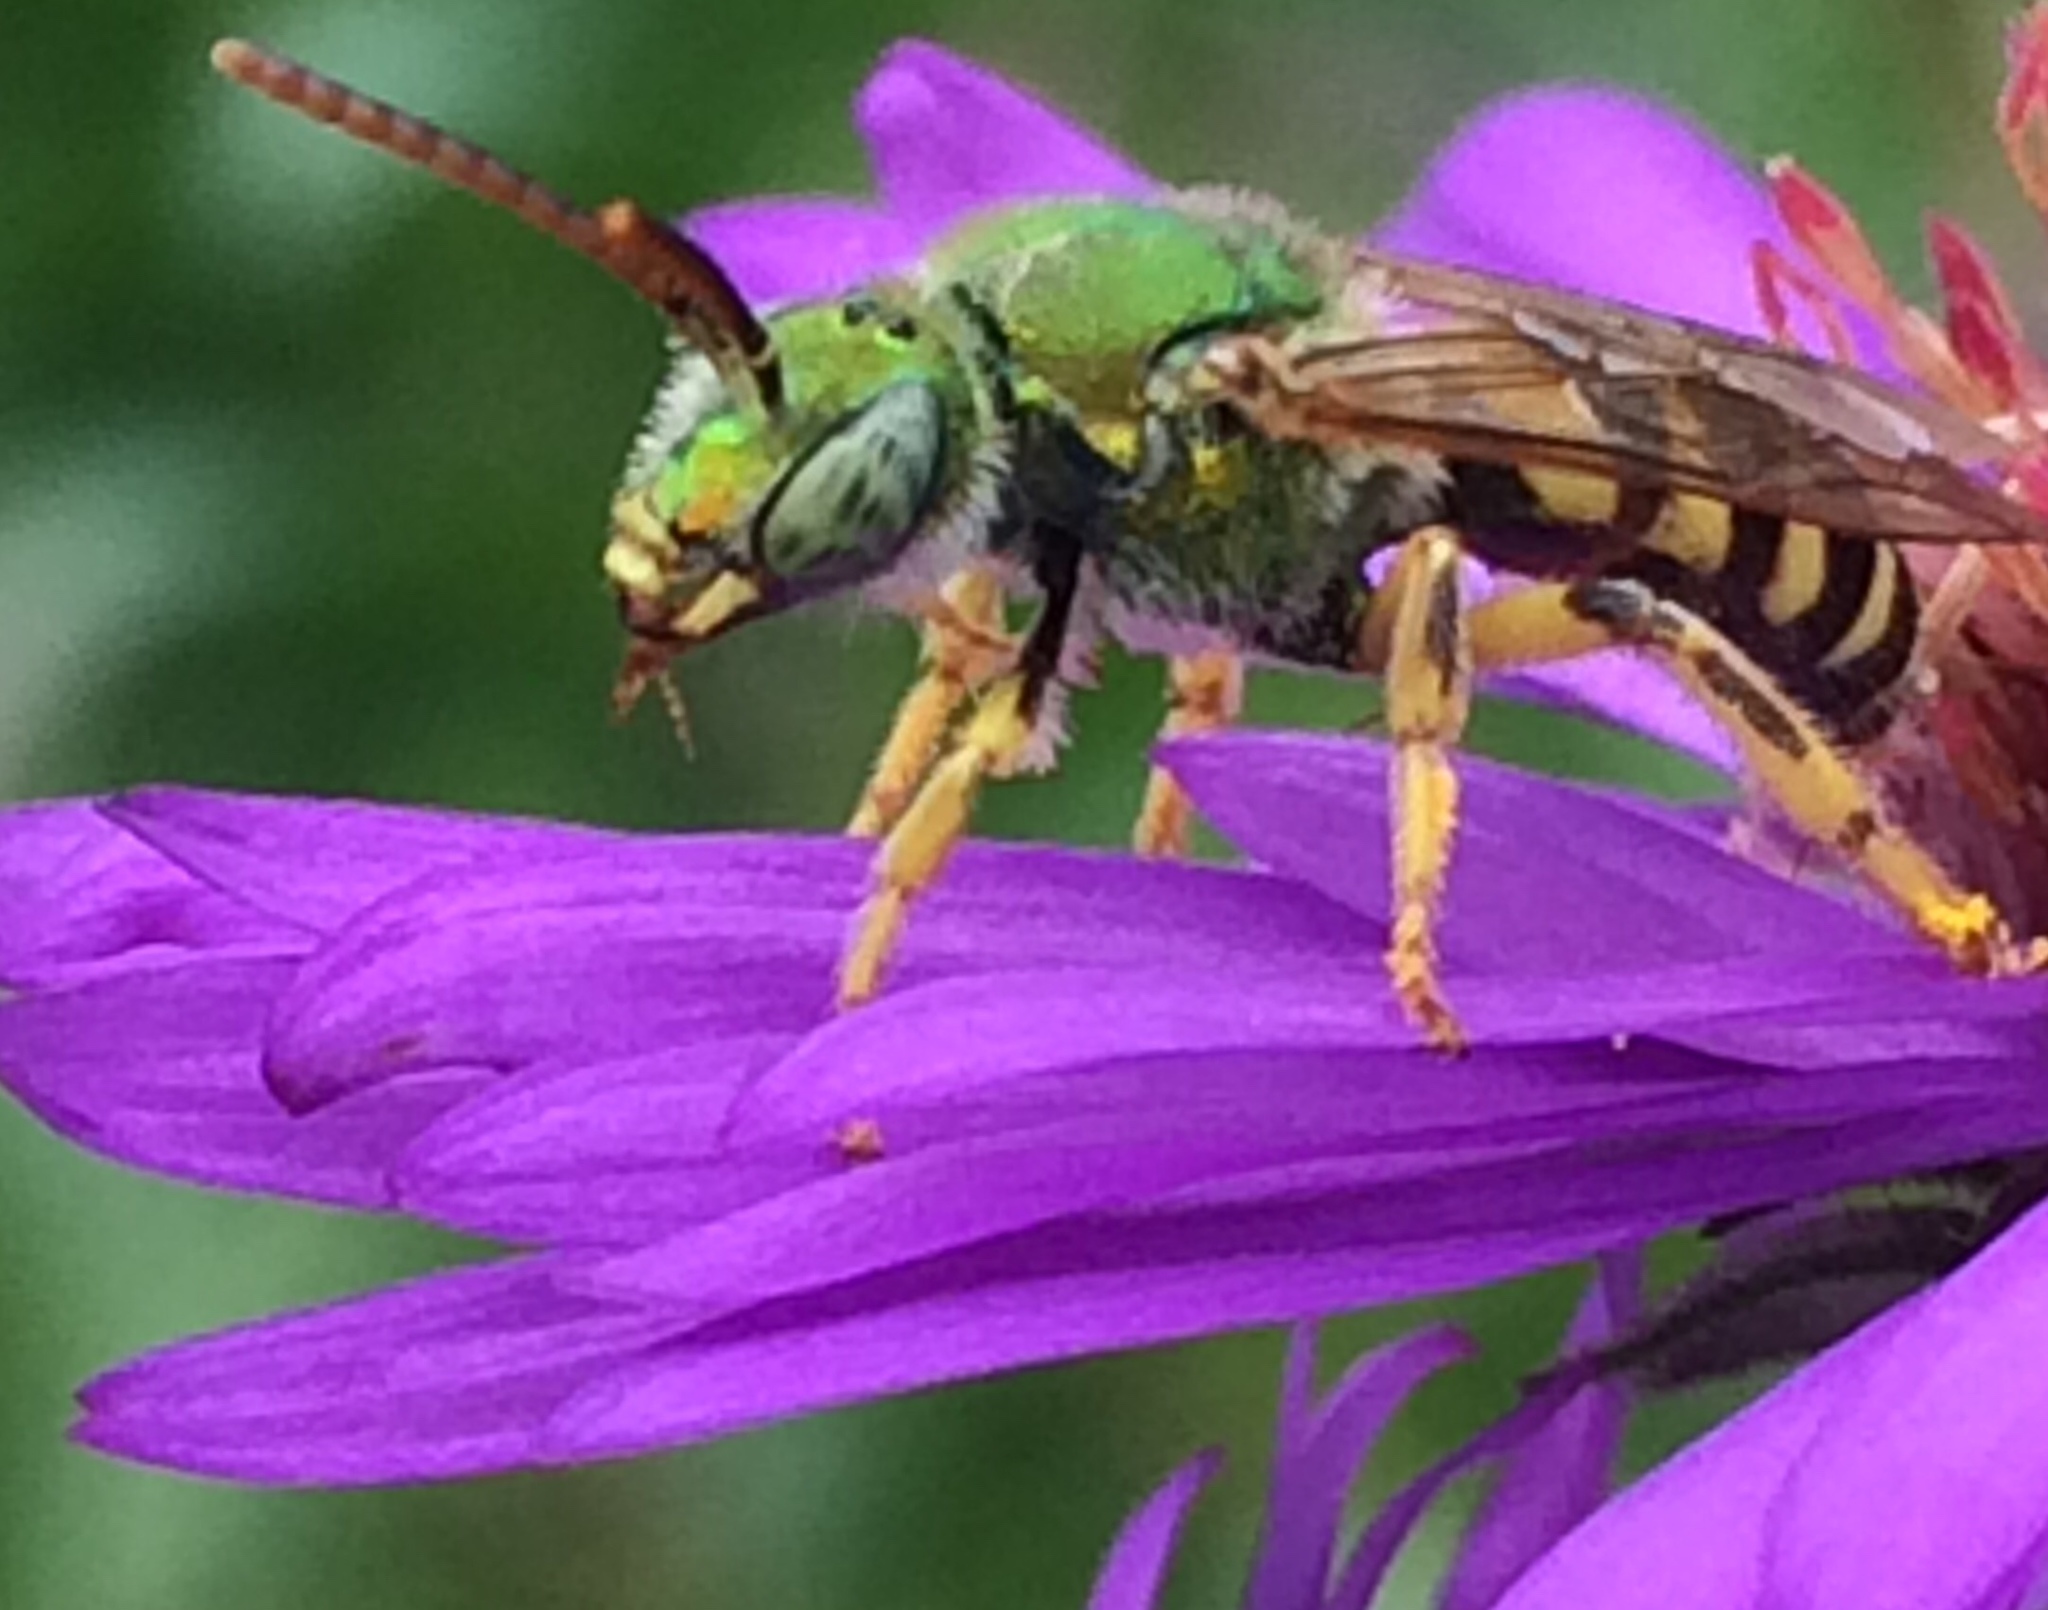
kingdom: Animalia
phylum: Arthropoda
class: Insecta
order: Hymenoptera
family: Halictidae
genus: Agapostemon
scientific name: Agapostemon virescens
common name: Bicolored striped sweat bee
